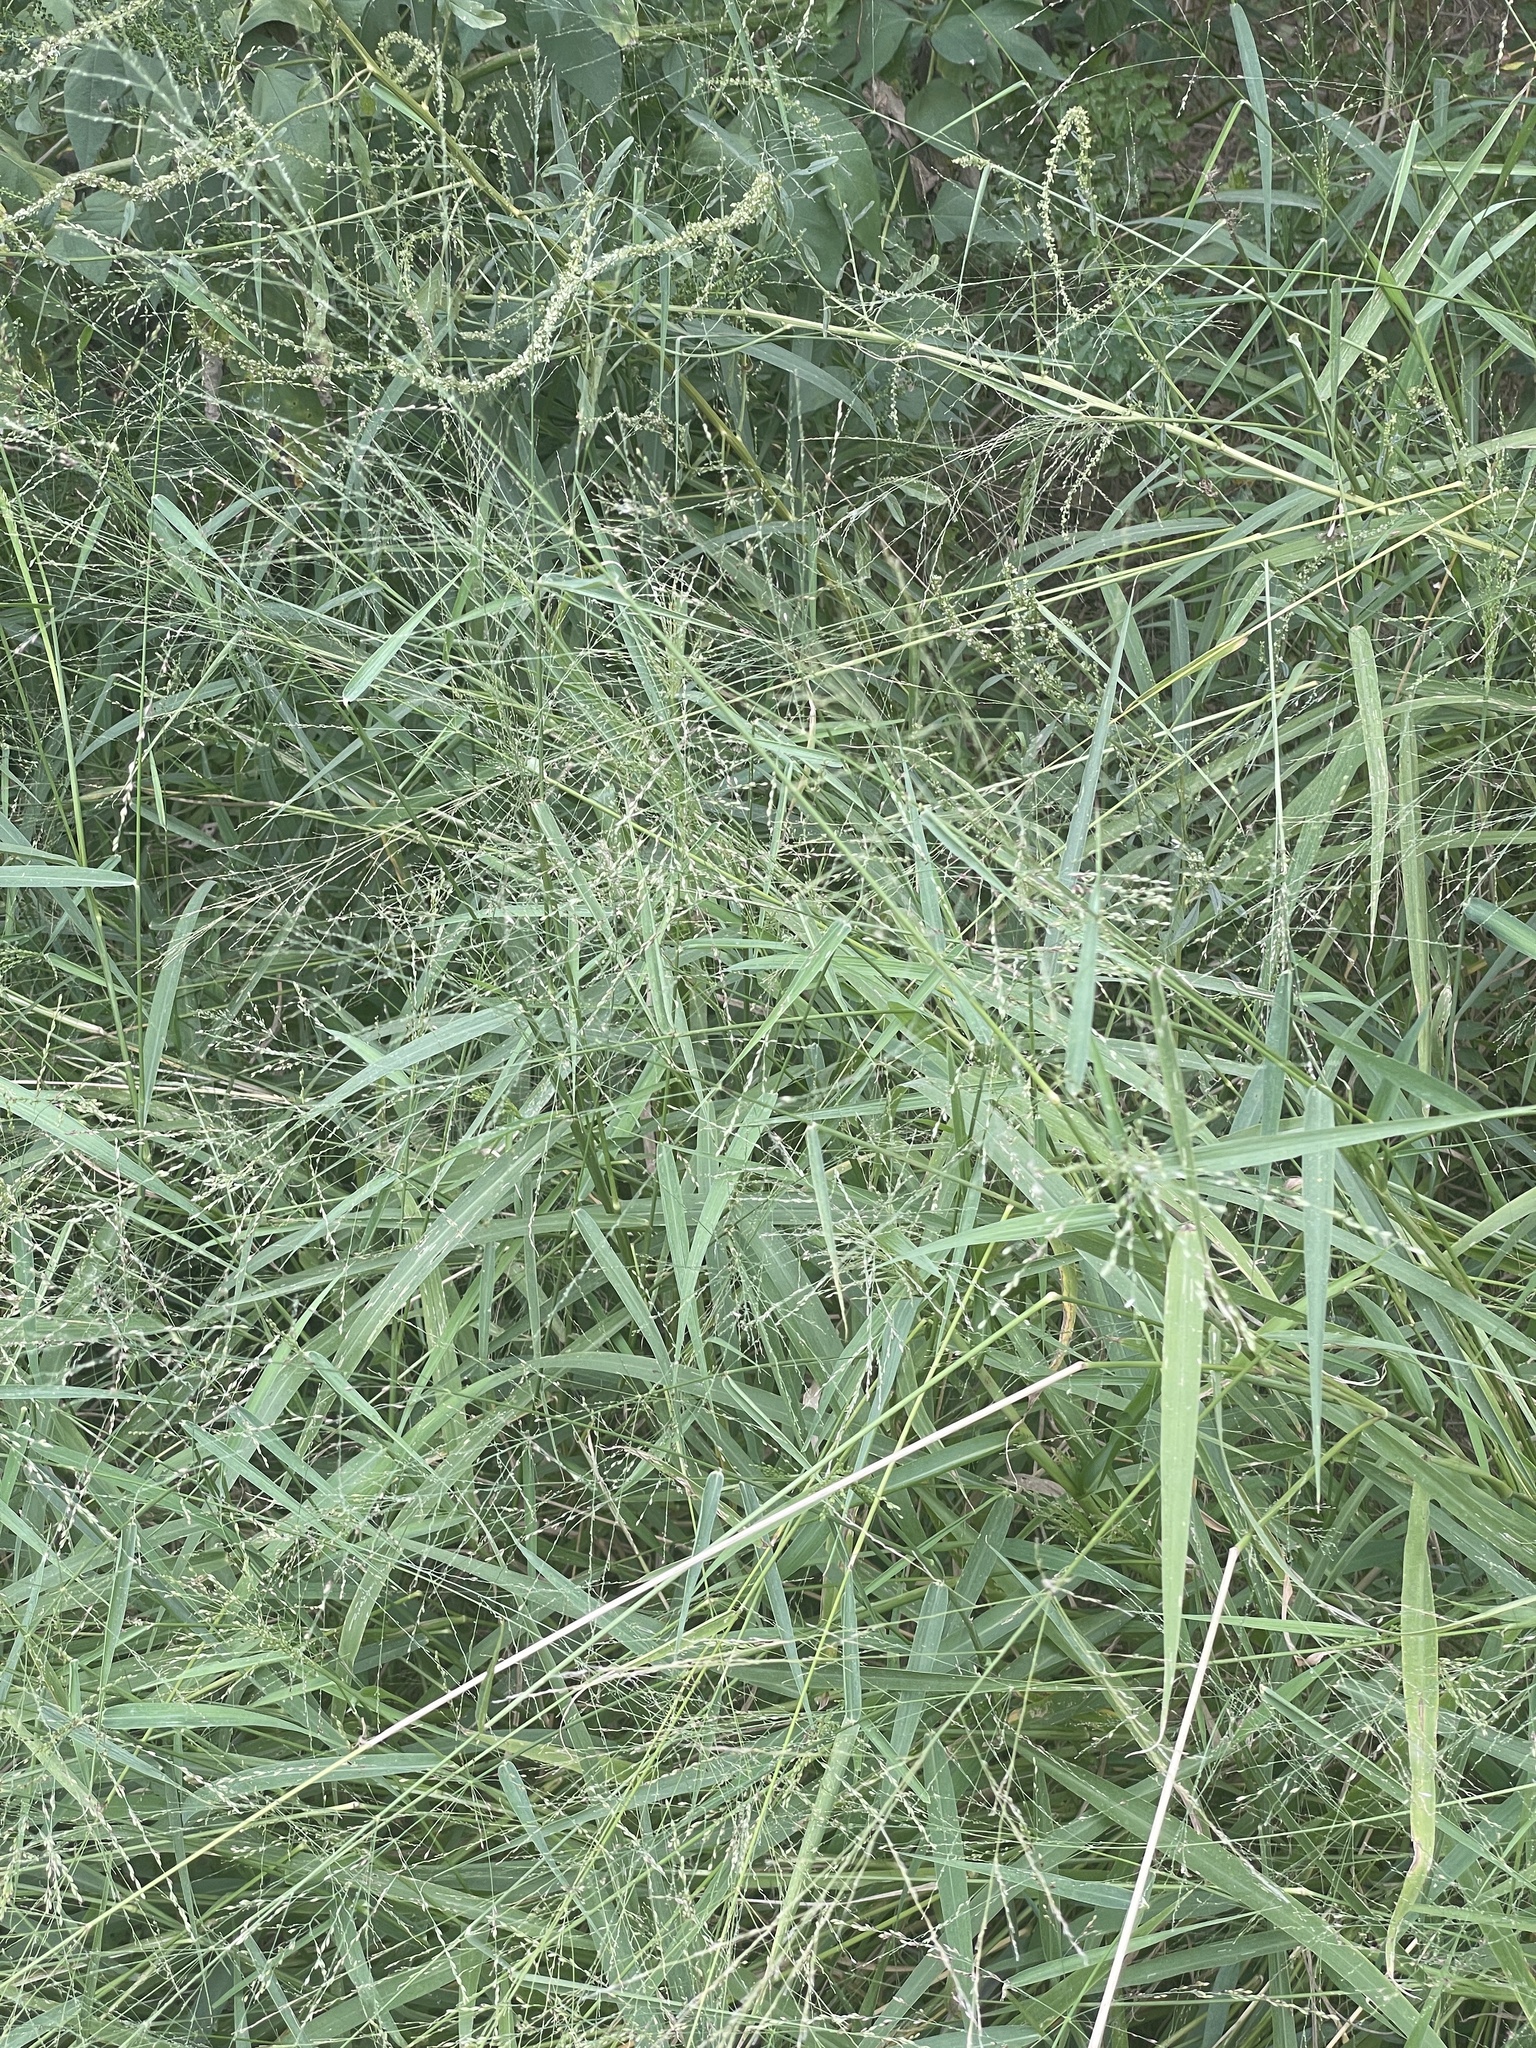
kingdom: Plantae
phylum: Tracheophyta
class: Liliopsida
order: Poales
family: Poaceae
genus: Megathyrsus
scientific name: Megathyrsus maximus
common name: Guineagrass
